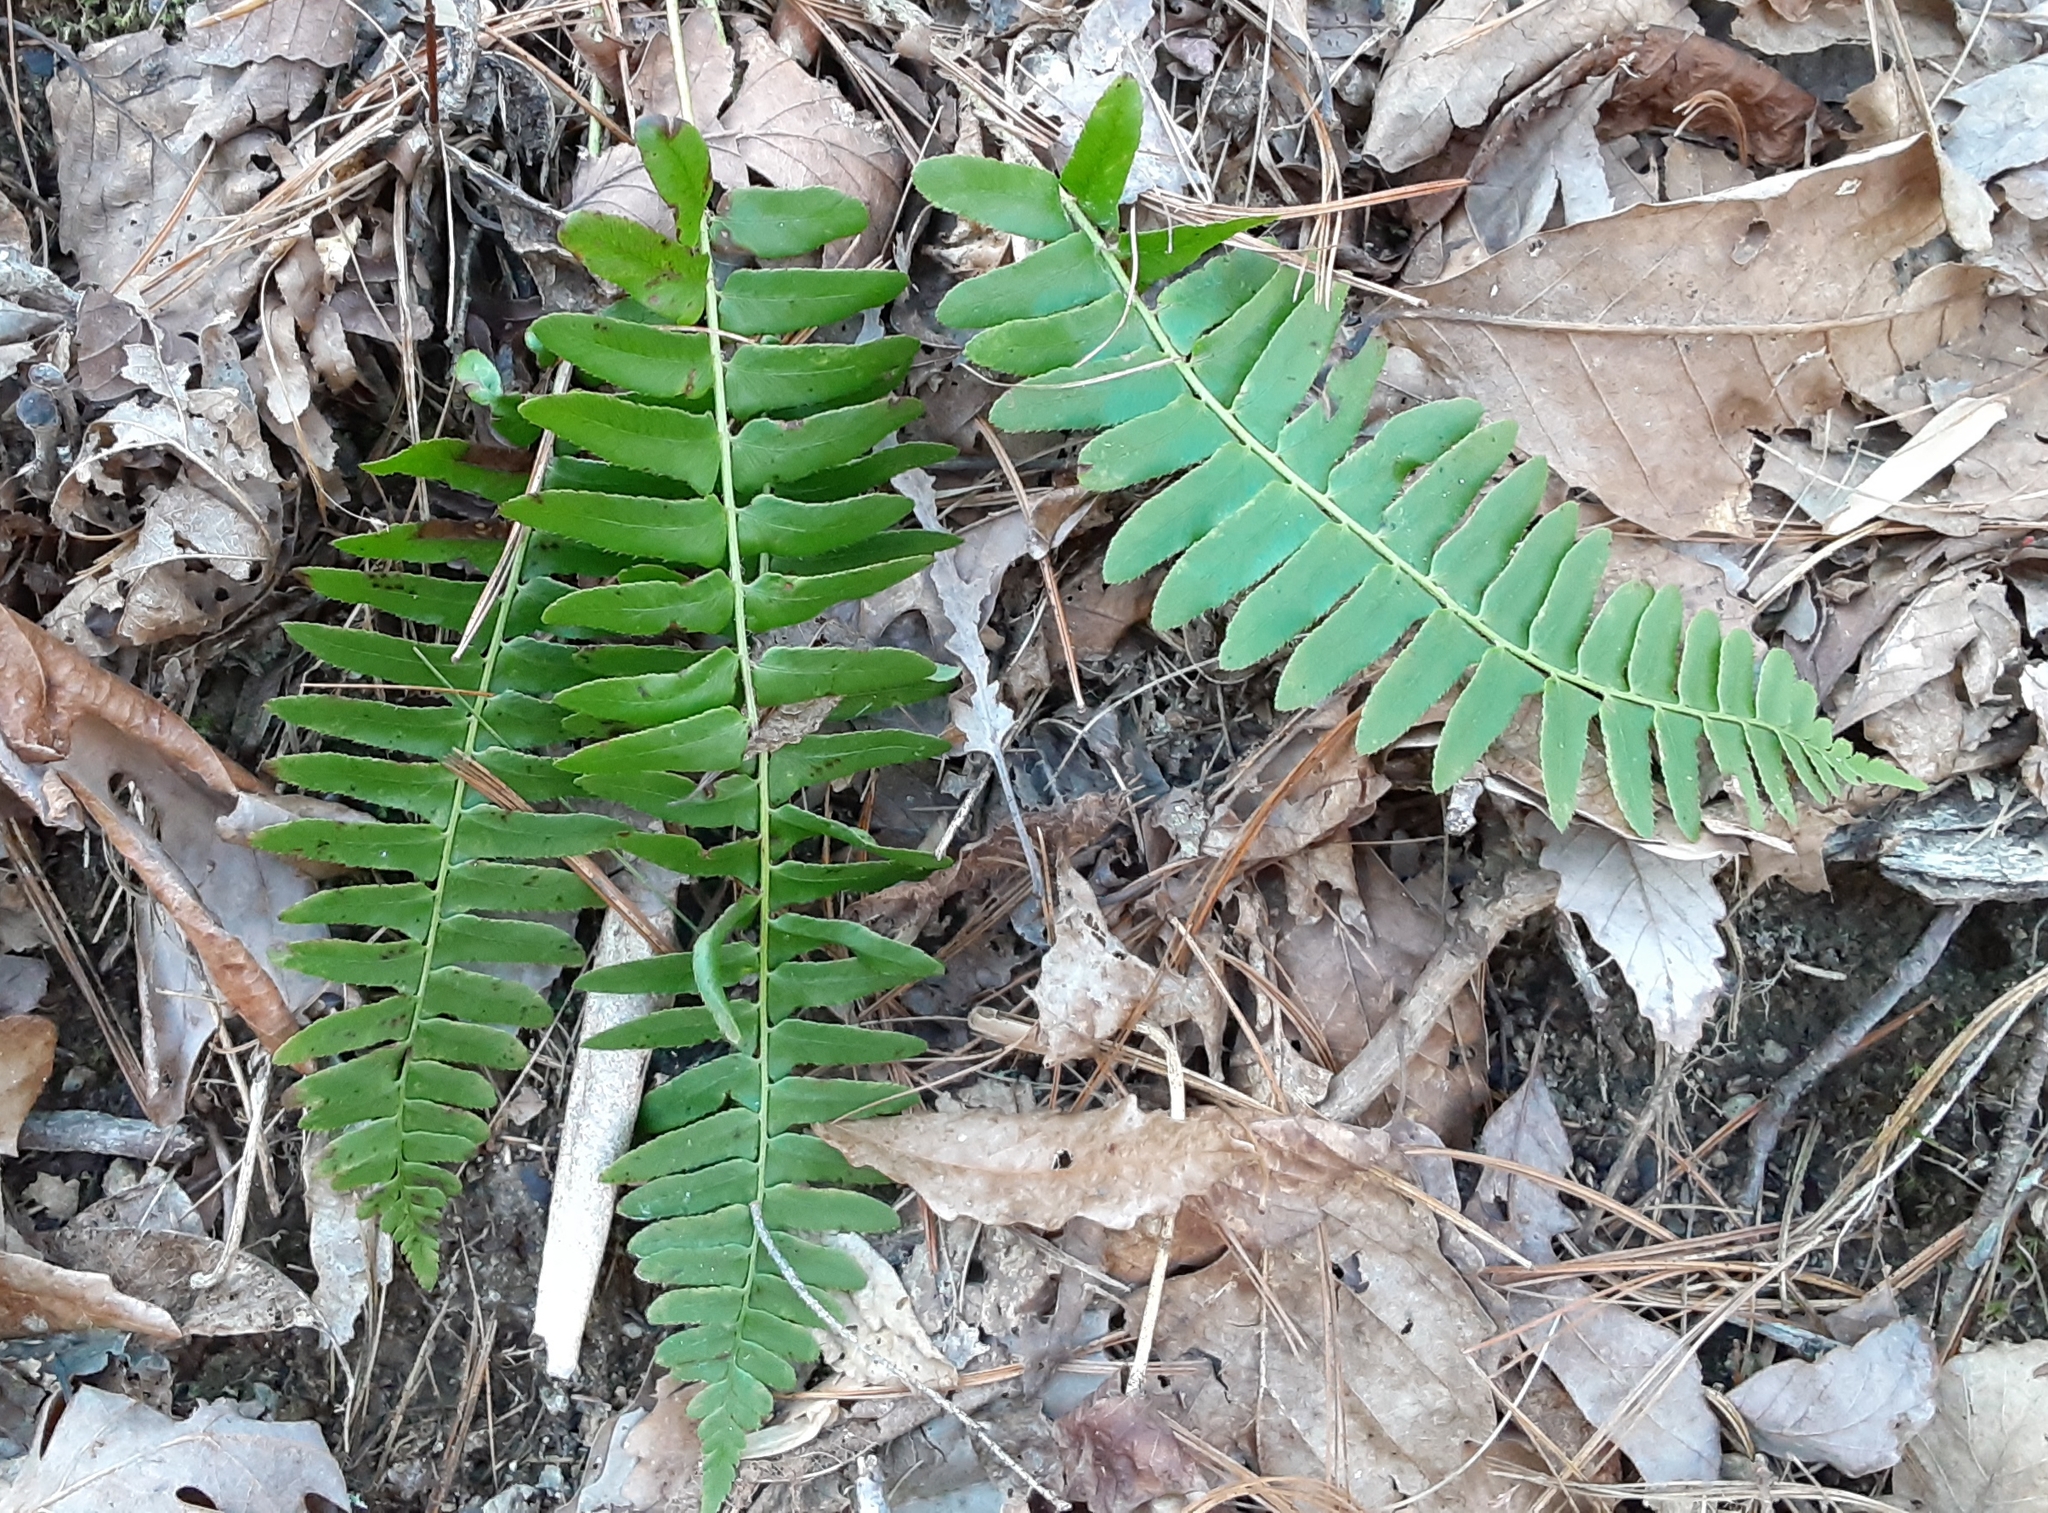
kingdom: Plantae
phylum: Tracheophyta
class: Polypodiopsida
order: Polypodiales
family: Dryopteridaceae
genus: Polystichum
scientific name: Polystichum acrostichoides
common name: Christmas fern
